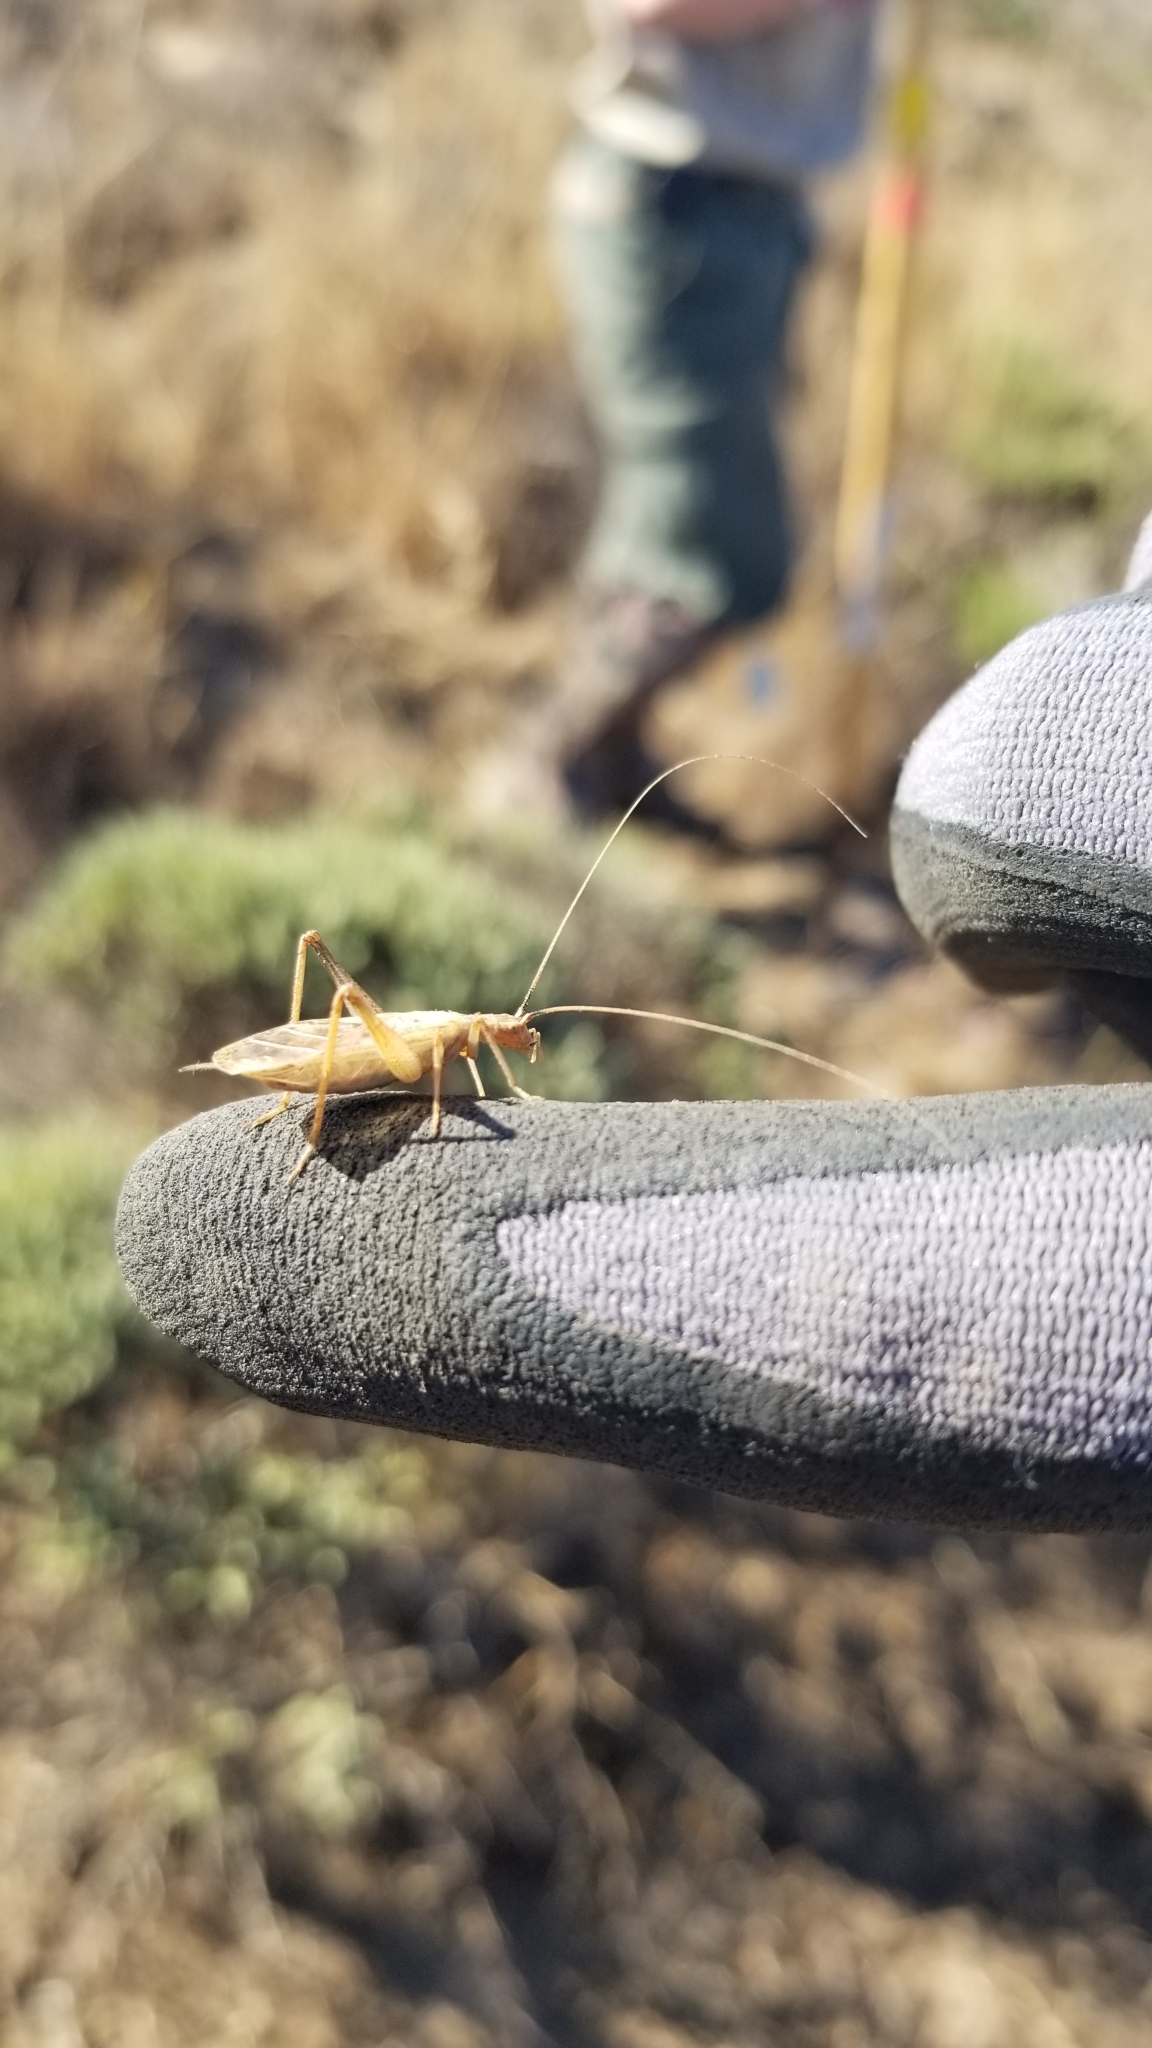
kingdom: Animalia
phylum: Arthropoda
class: Insecta
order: Orthoptera
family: Gryllidae
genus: Oecanthus
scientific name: Oecanthus californicus
